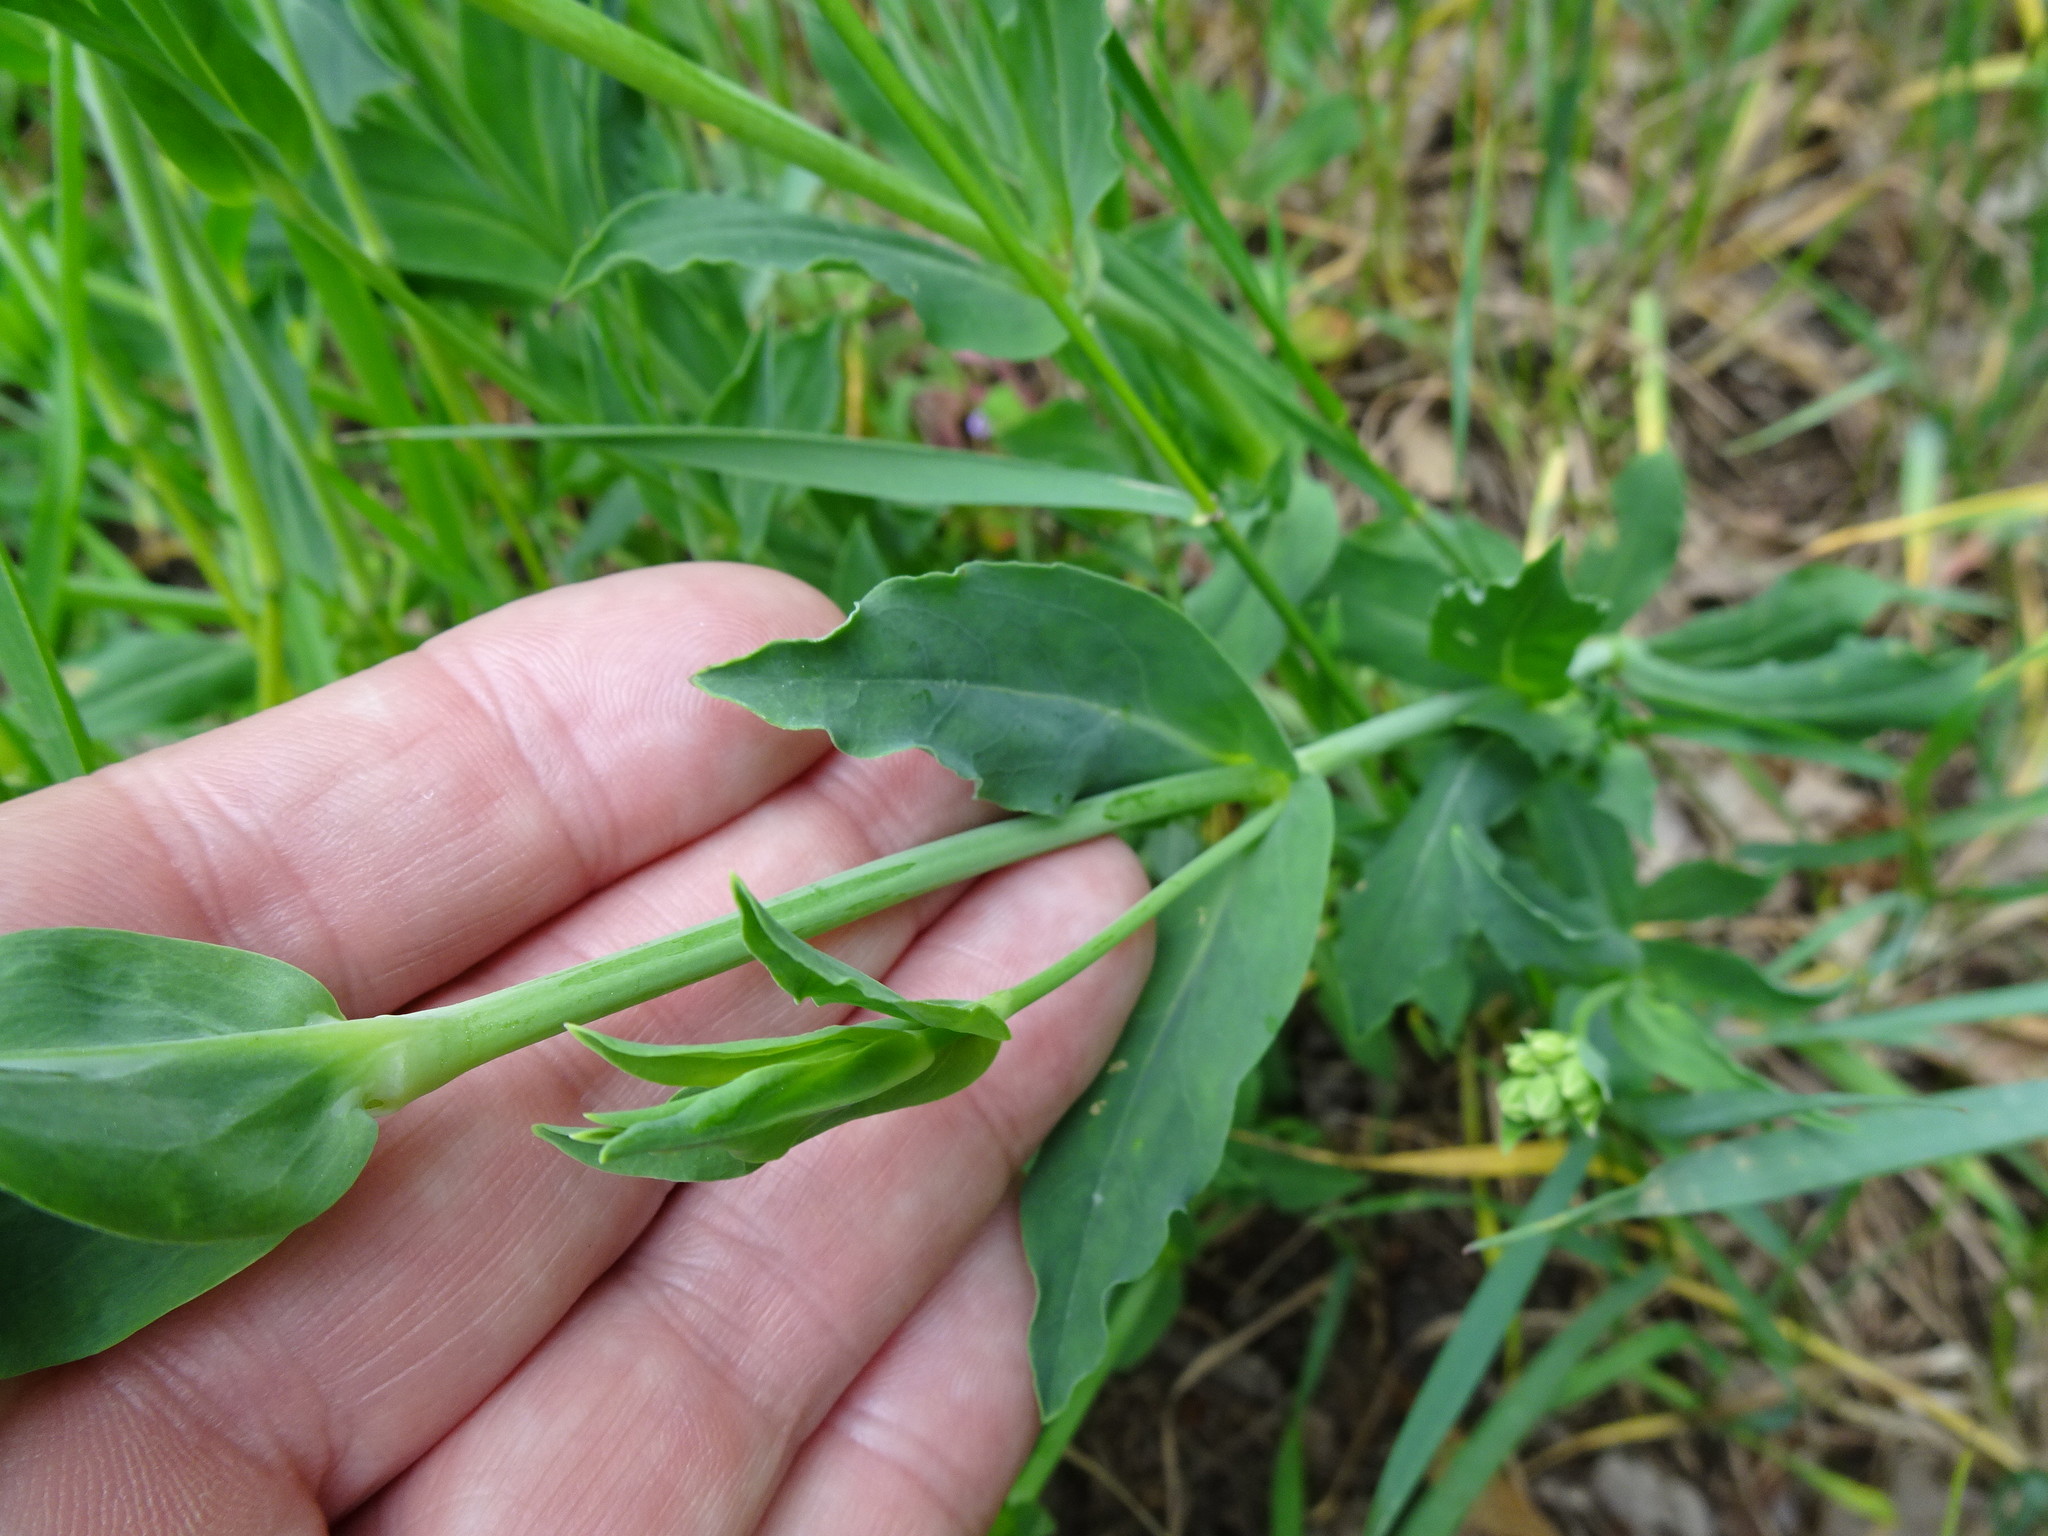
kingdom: Plantae
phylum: Tracheophyta
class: Magnoliopsida
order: Caryophyllales
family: Caryophyllaceae
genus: Silene
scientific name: Silene vulgaris
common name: Bladder campion
